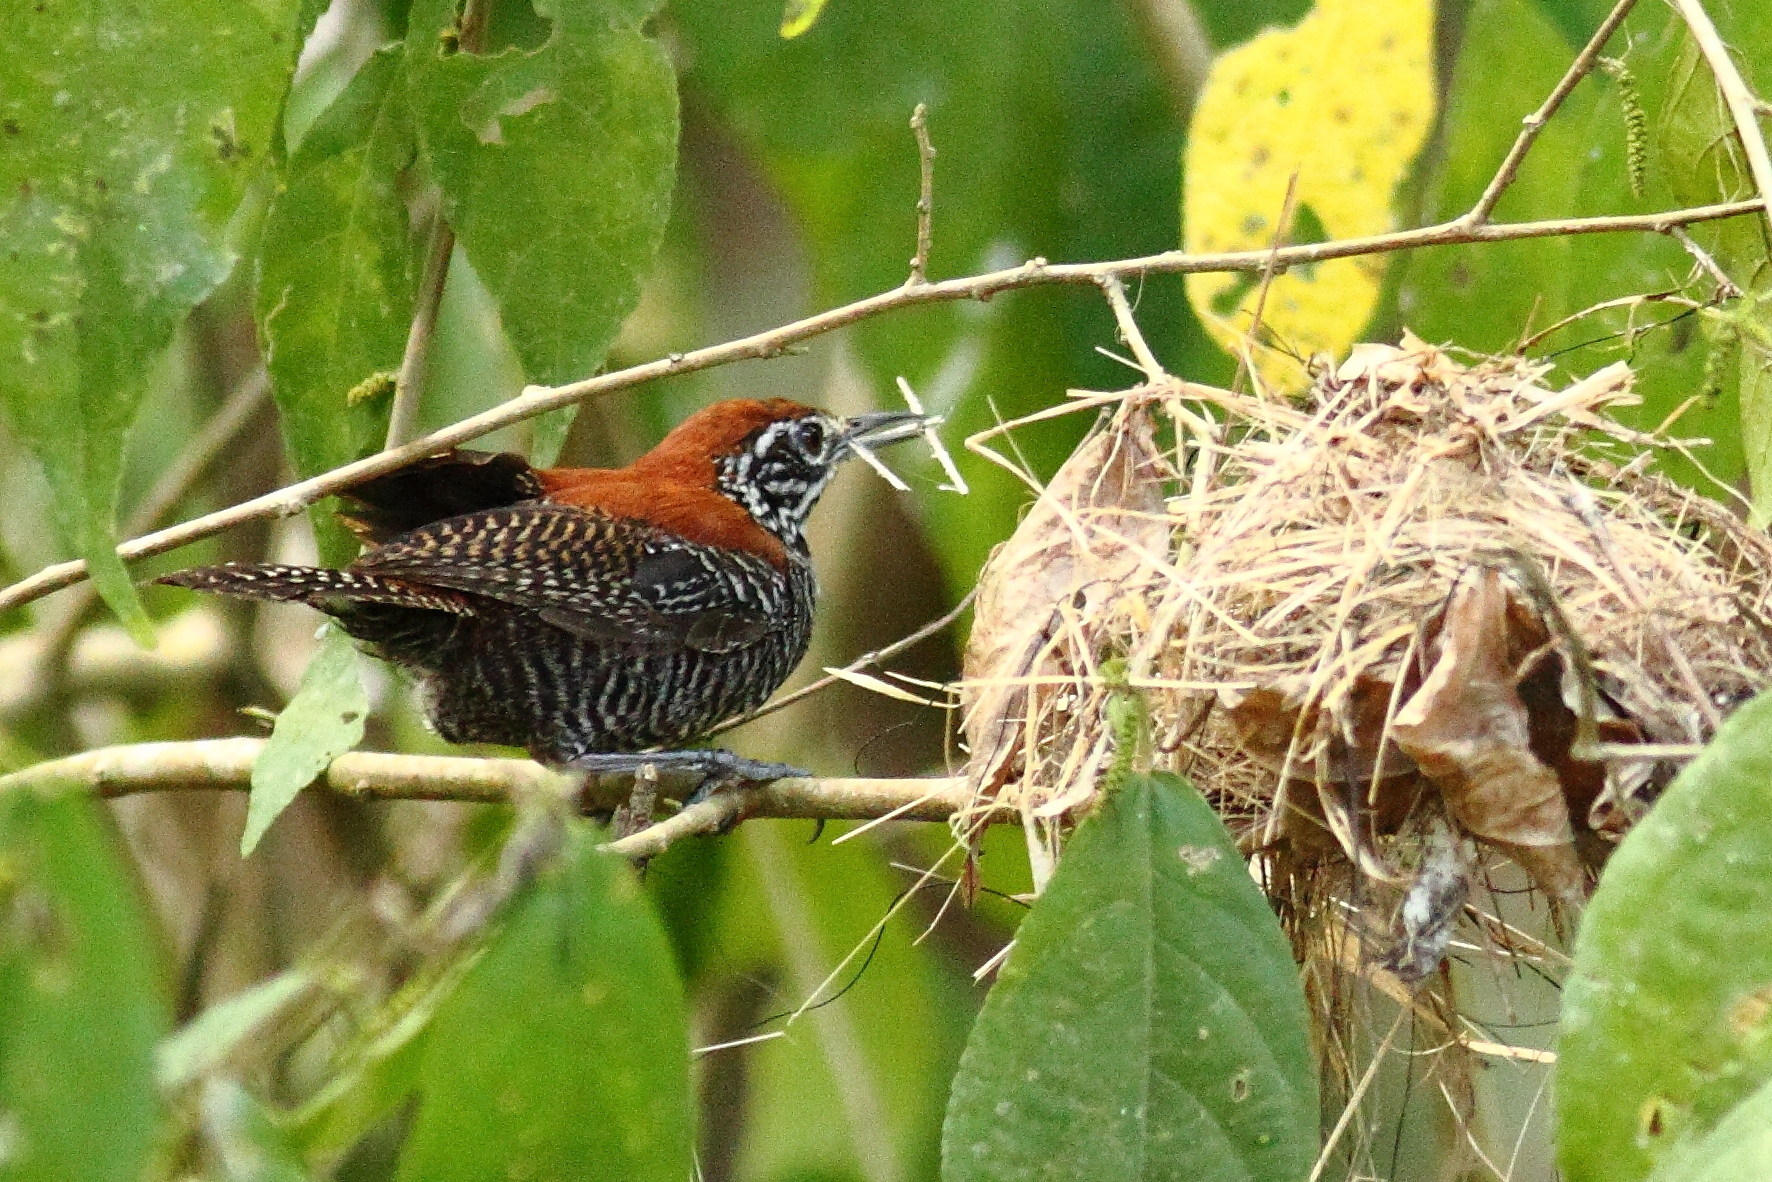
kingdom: Animalia
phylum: Chordata
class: Aves
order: Passeriformes
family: Troglodytidae
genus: Cantorchilus
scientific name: Cantorchilus semibadius
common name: Riverside wren
